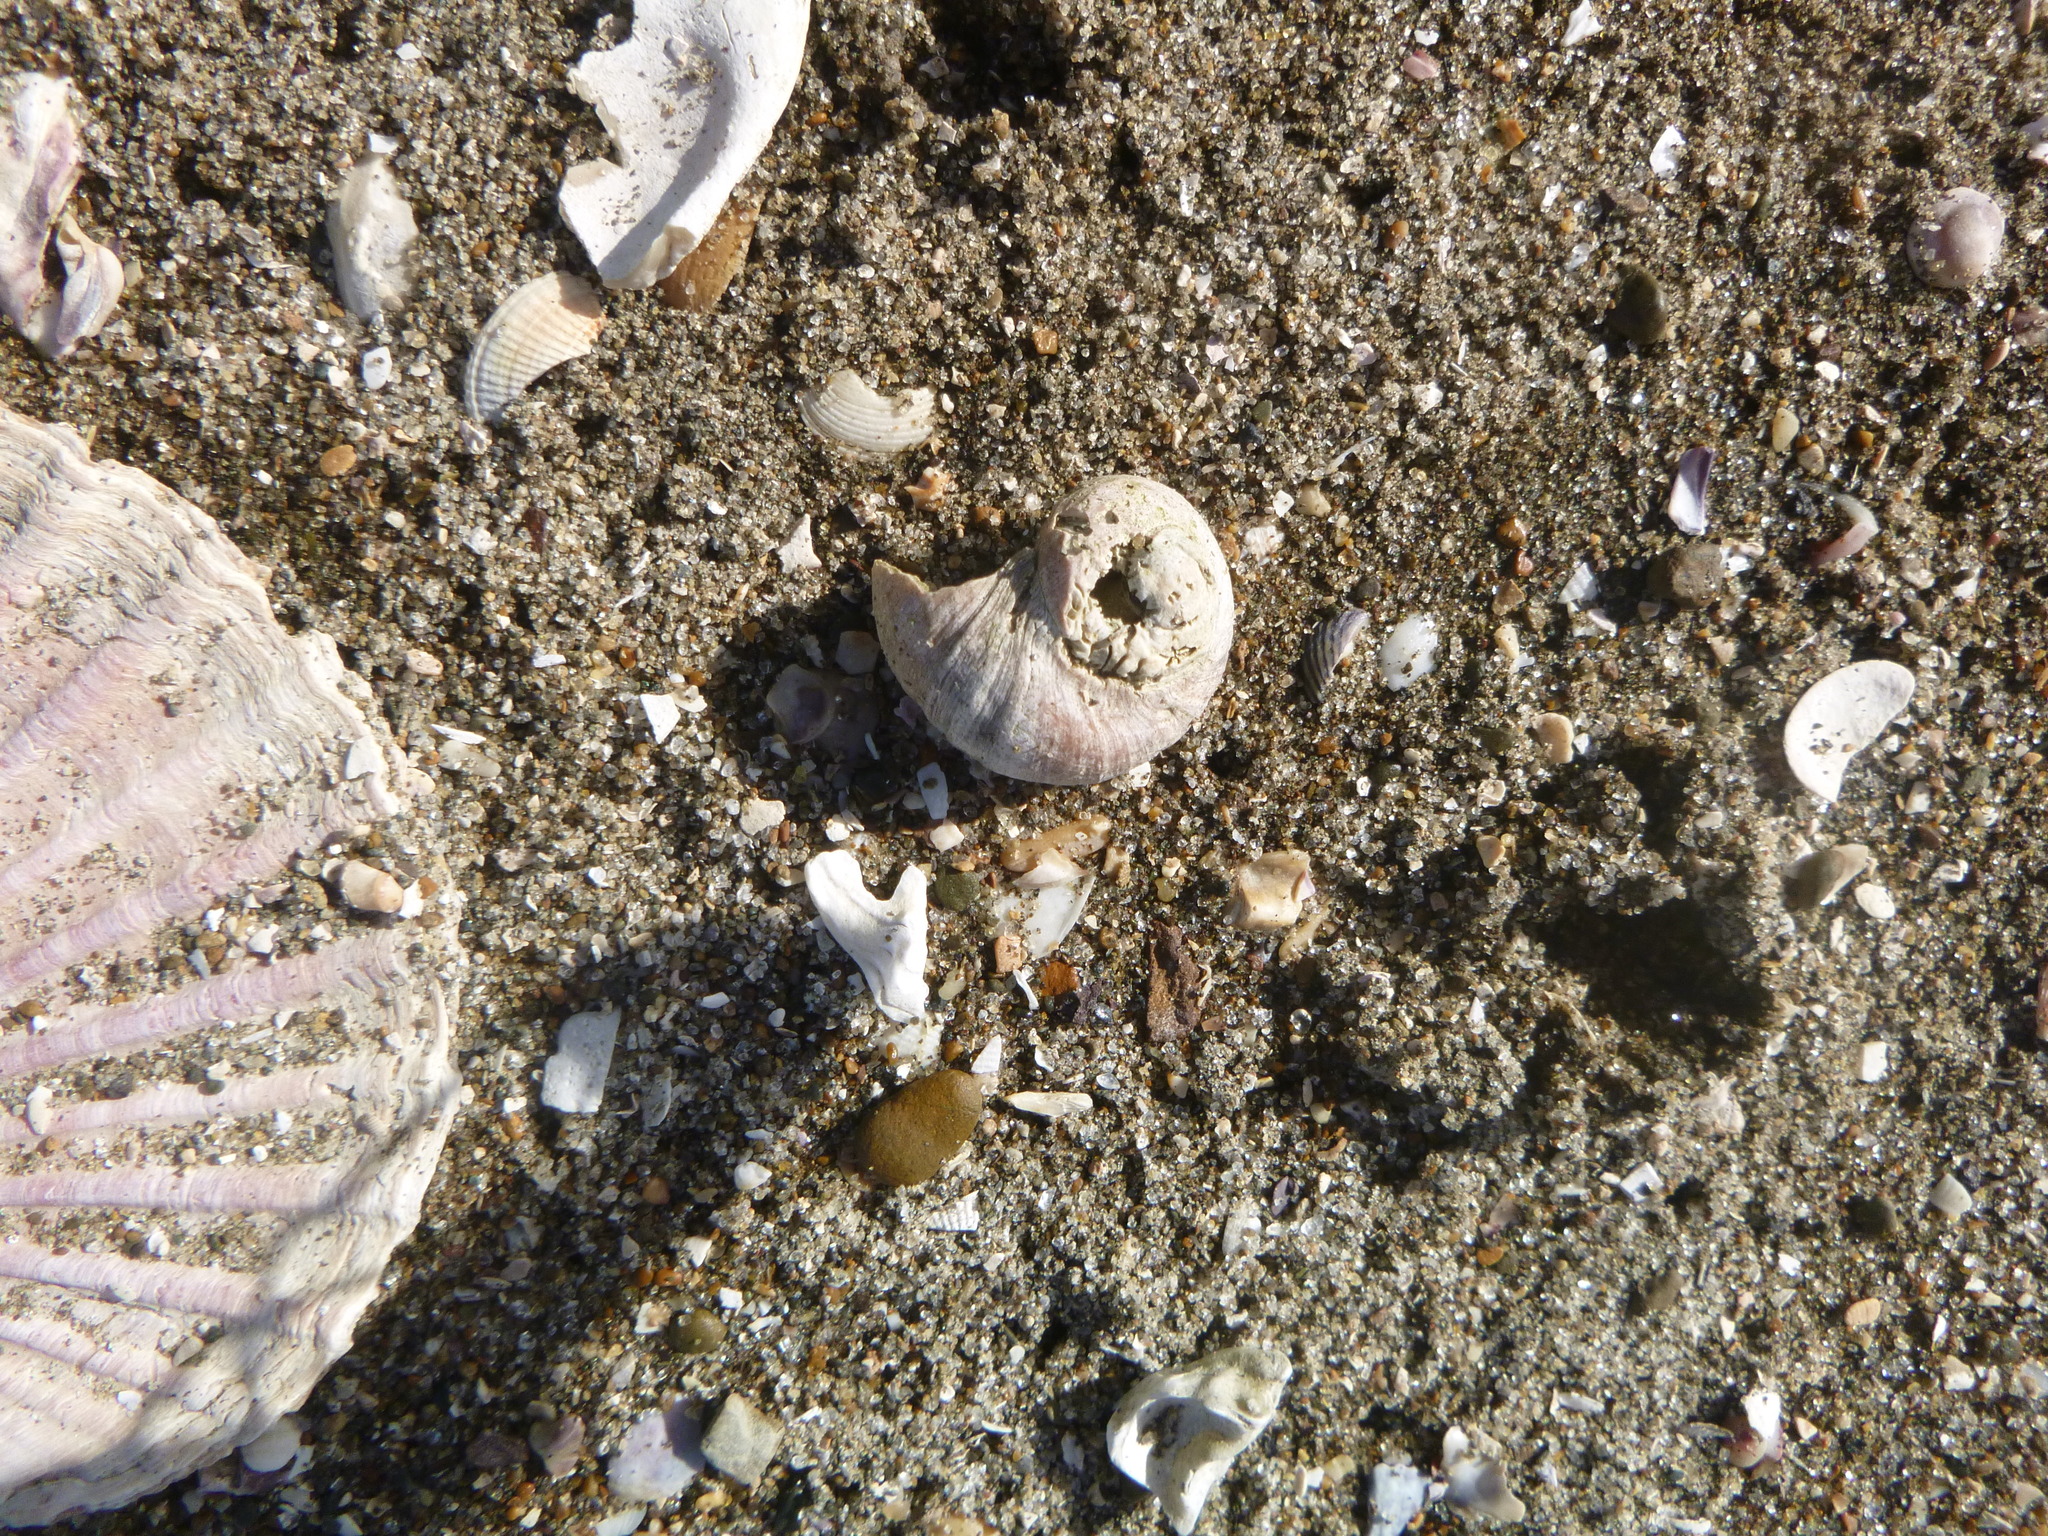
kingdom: Animalia
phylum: Mollusca
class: Gastropoda
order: Trochida
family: Turbinidae
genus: Lunella
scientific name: Lunella smaragda
